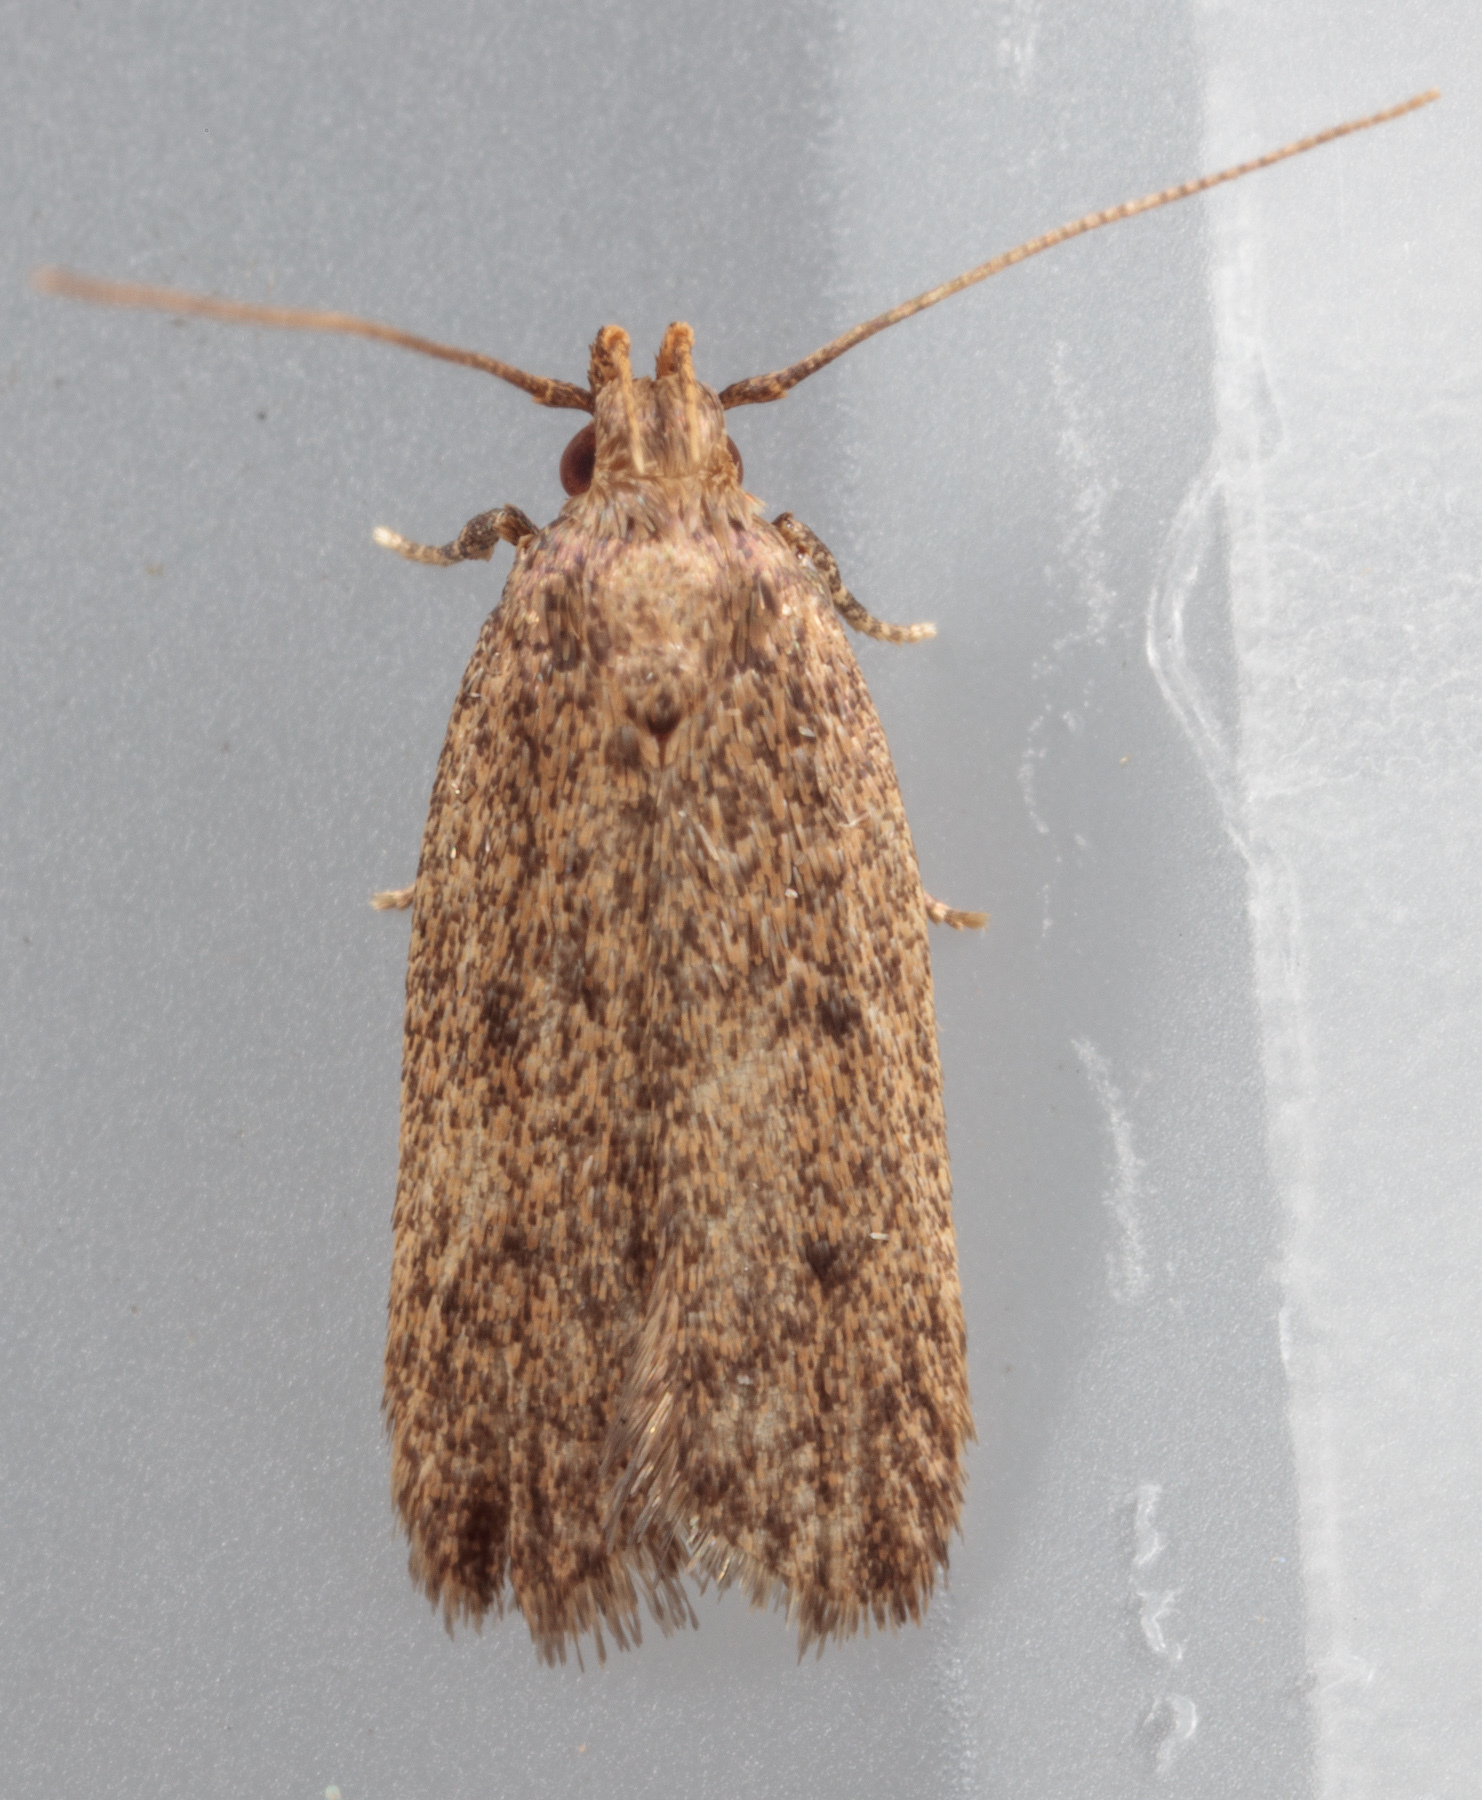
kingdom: Animalia
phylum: Arthropoda
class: Insecta
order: Lepidoptera
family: Autostichidae
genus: Glyphidocera
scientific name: Glyphidocera juniperella
